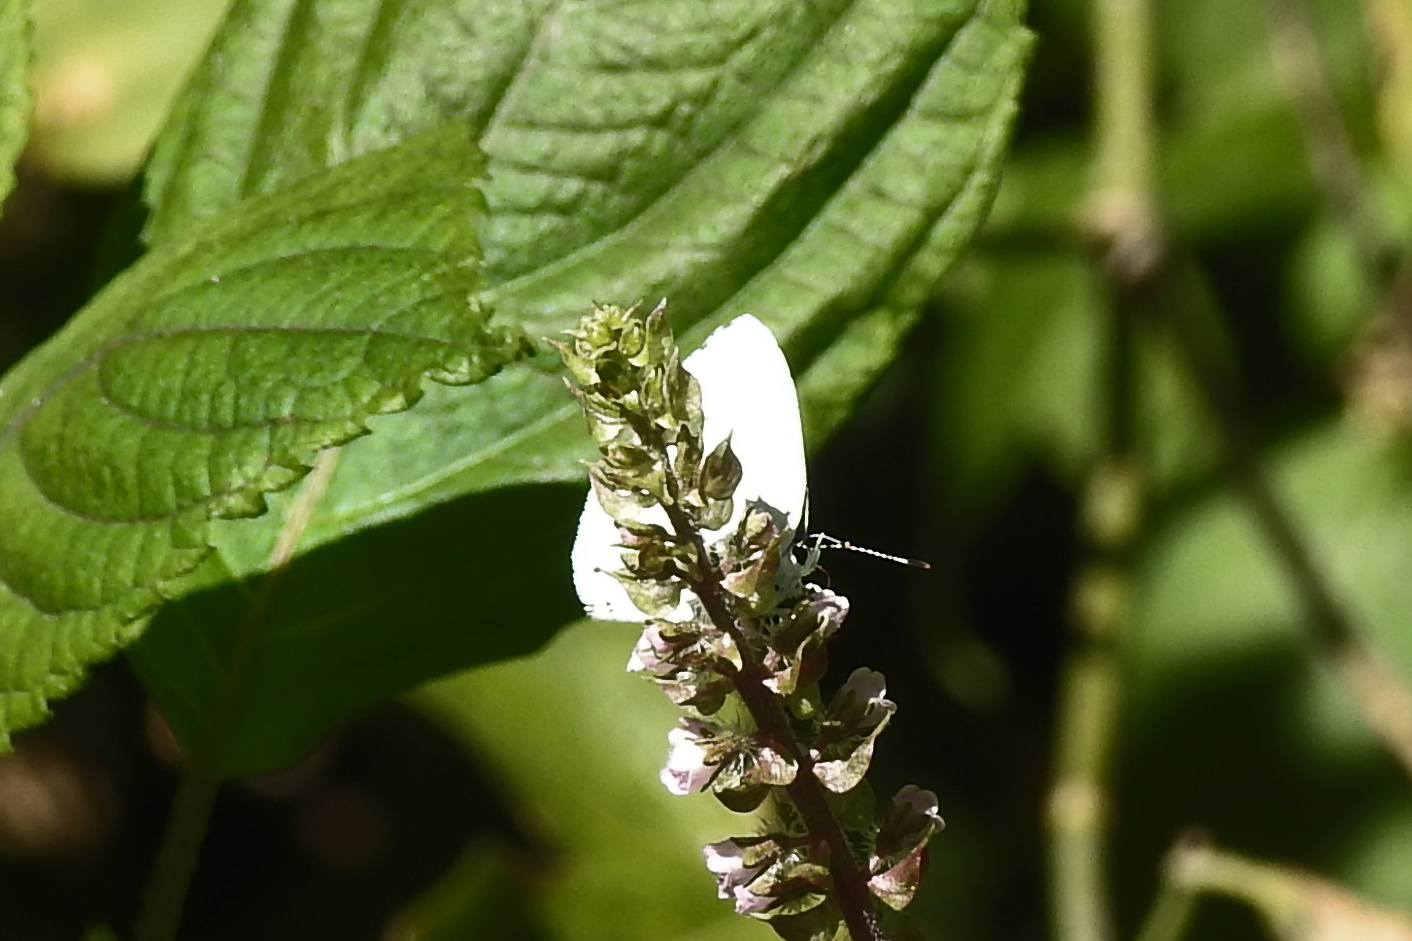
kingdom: Animalia
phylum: Arthropoda
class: Insecta
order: Lepidoptera
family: Pieridae
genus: Pieris
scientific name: Pieris rapae
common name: Small white
